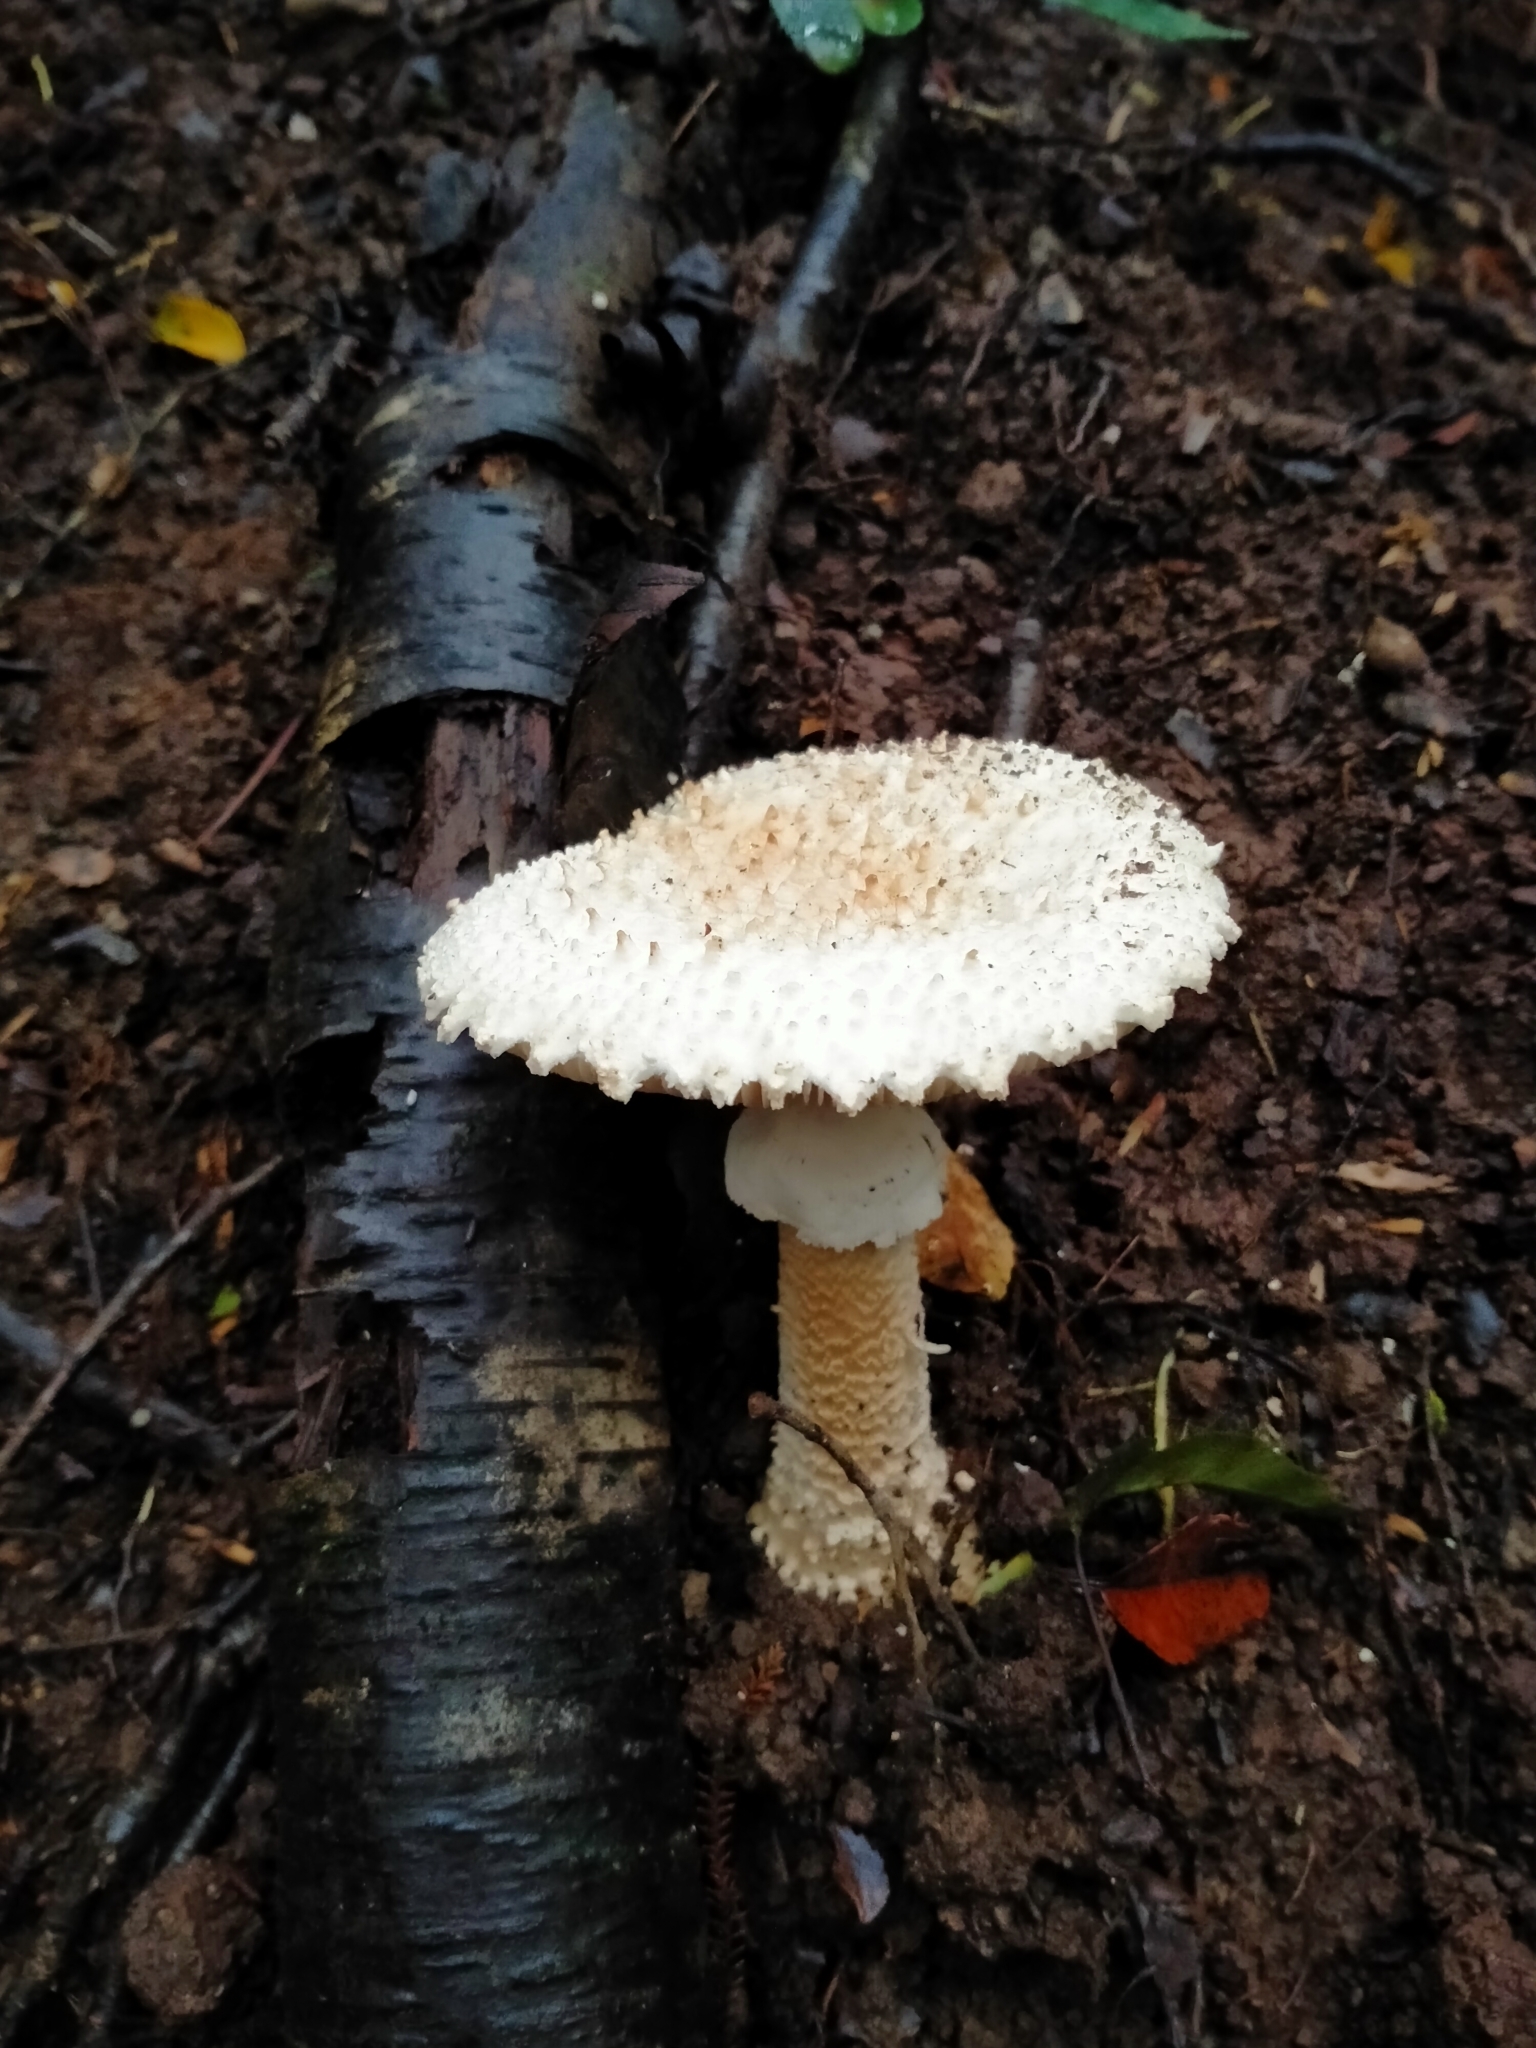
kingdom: Fungi
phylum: Basidiomycota
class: Agaricomycetes
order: Agaricales
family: Amanitaceae
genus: Amanita
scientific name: Amanita pareparina
